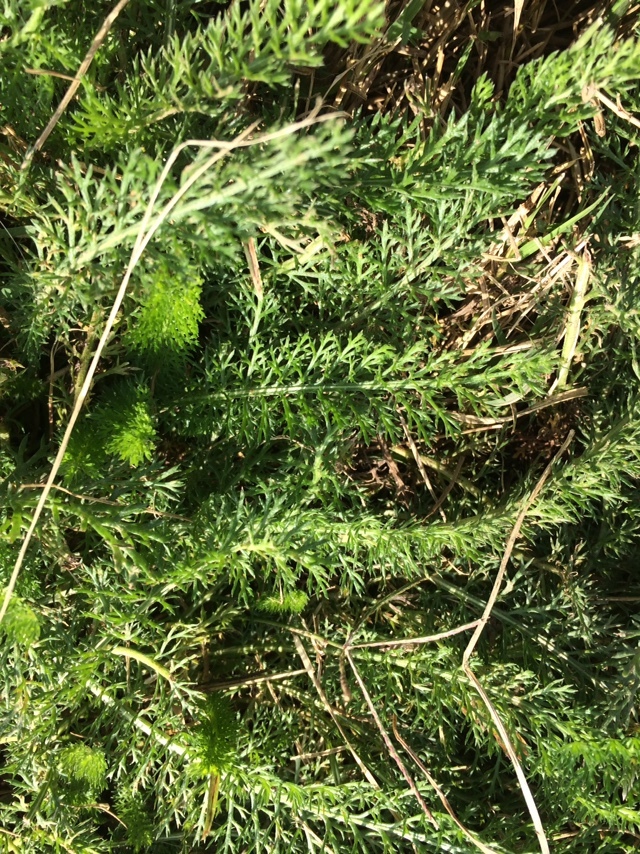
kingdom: Plantae
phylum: Tracheophyta
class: Magnoliopsida
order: Asterales
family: Asteraceae
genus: Achillea
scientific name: Achillea millefolium
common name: Yarrow
